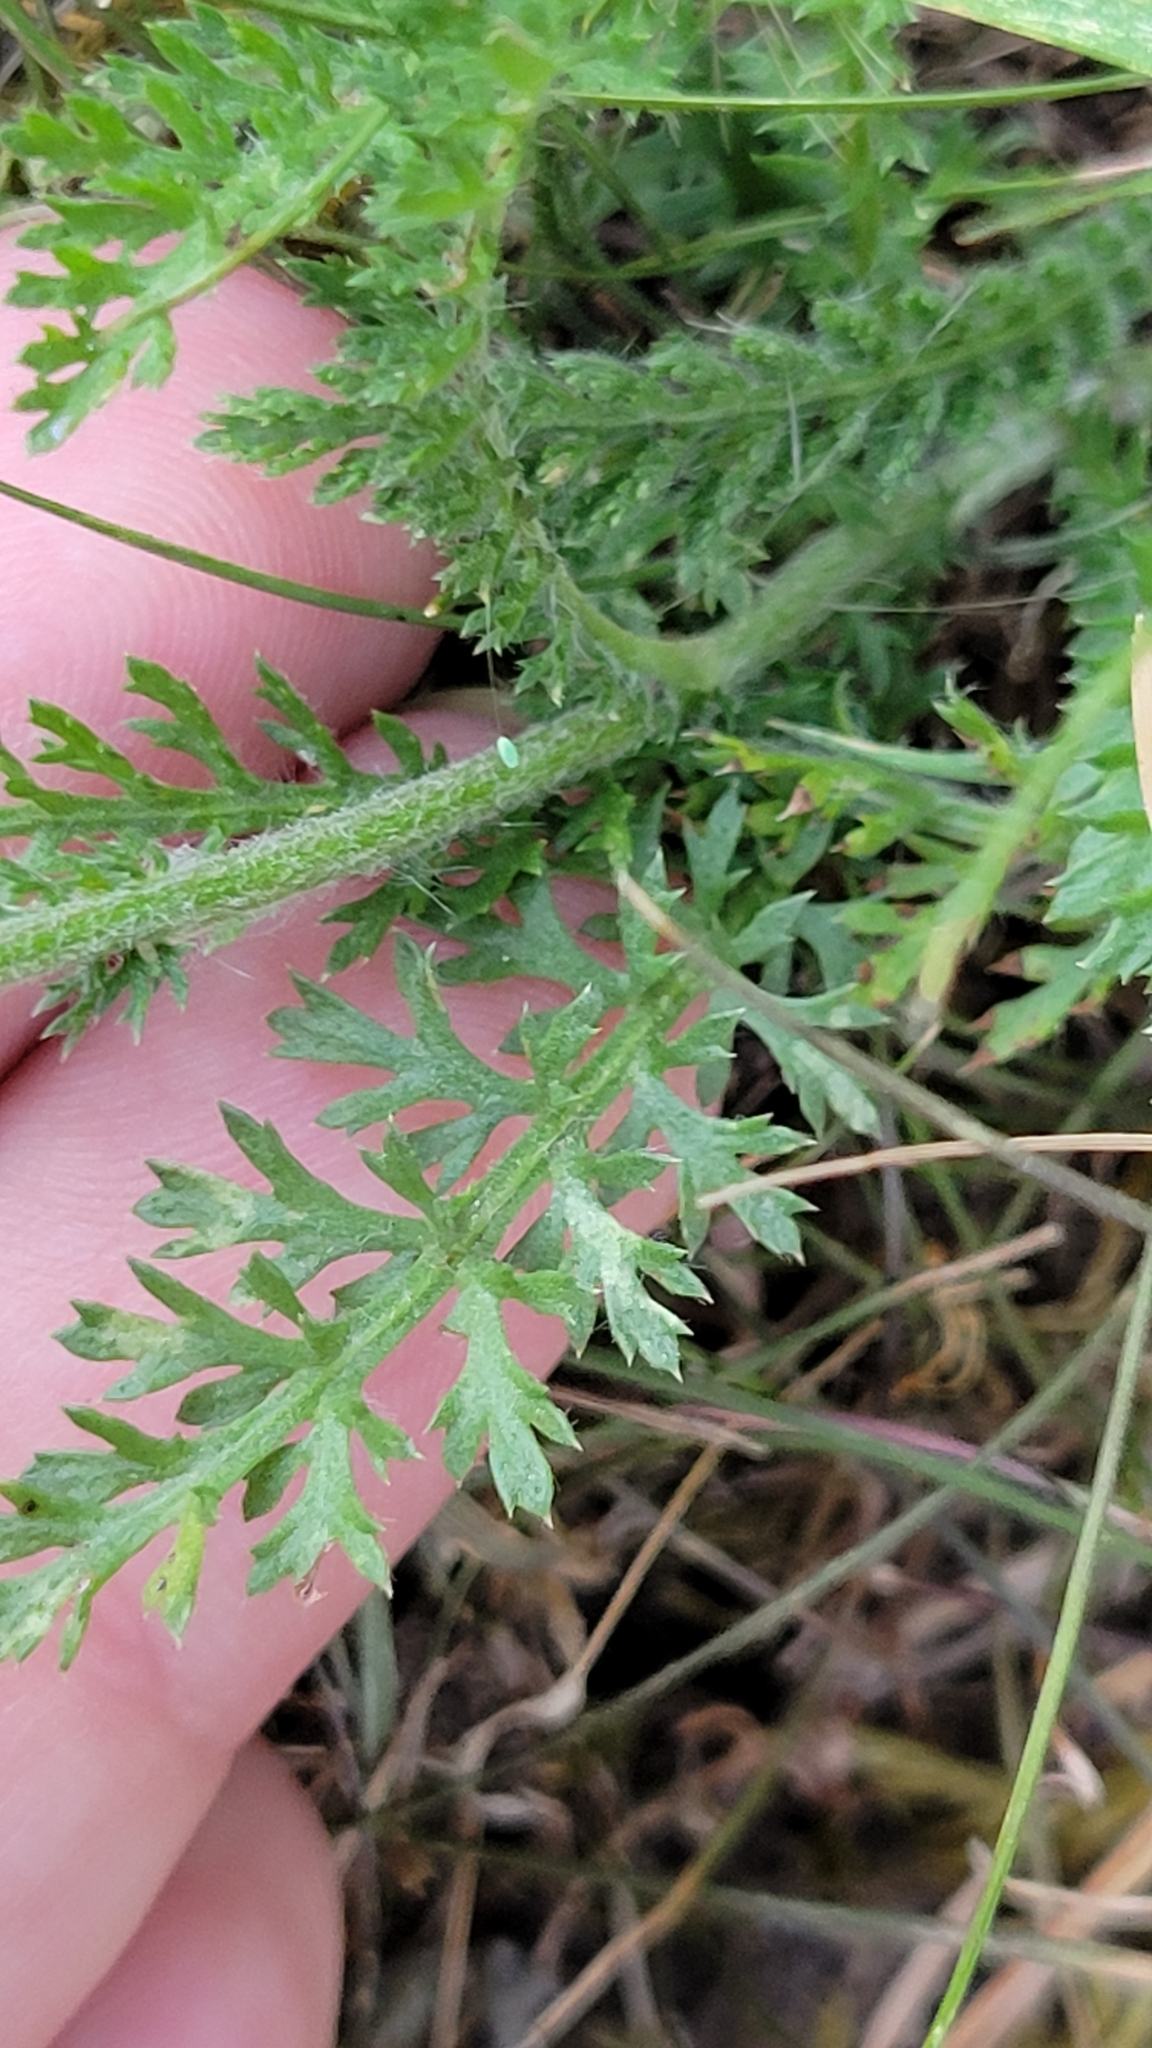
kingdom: Plantae
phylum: Tracheophyta
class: Magnoliopsida
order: Asterales
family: Asteraceae
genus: Achillea
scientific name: Achillea millefolium
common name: Yarrow
